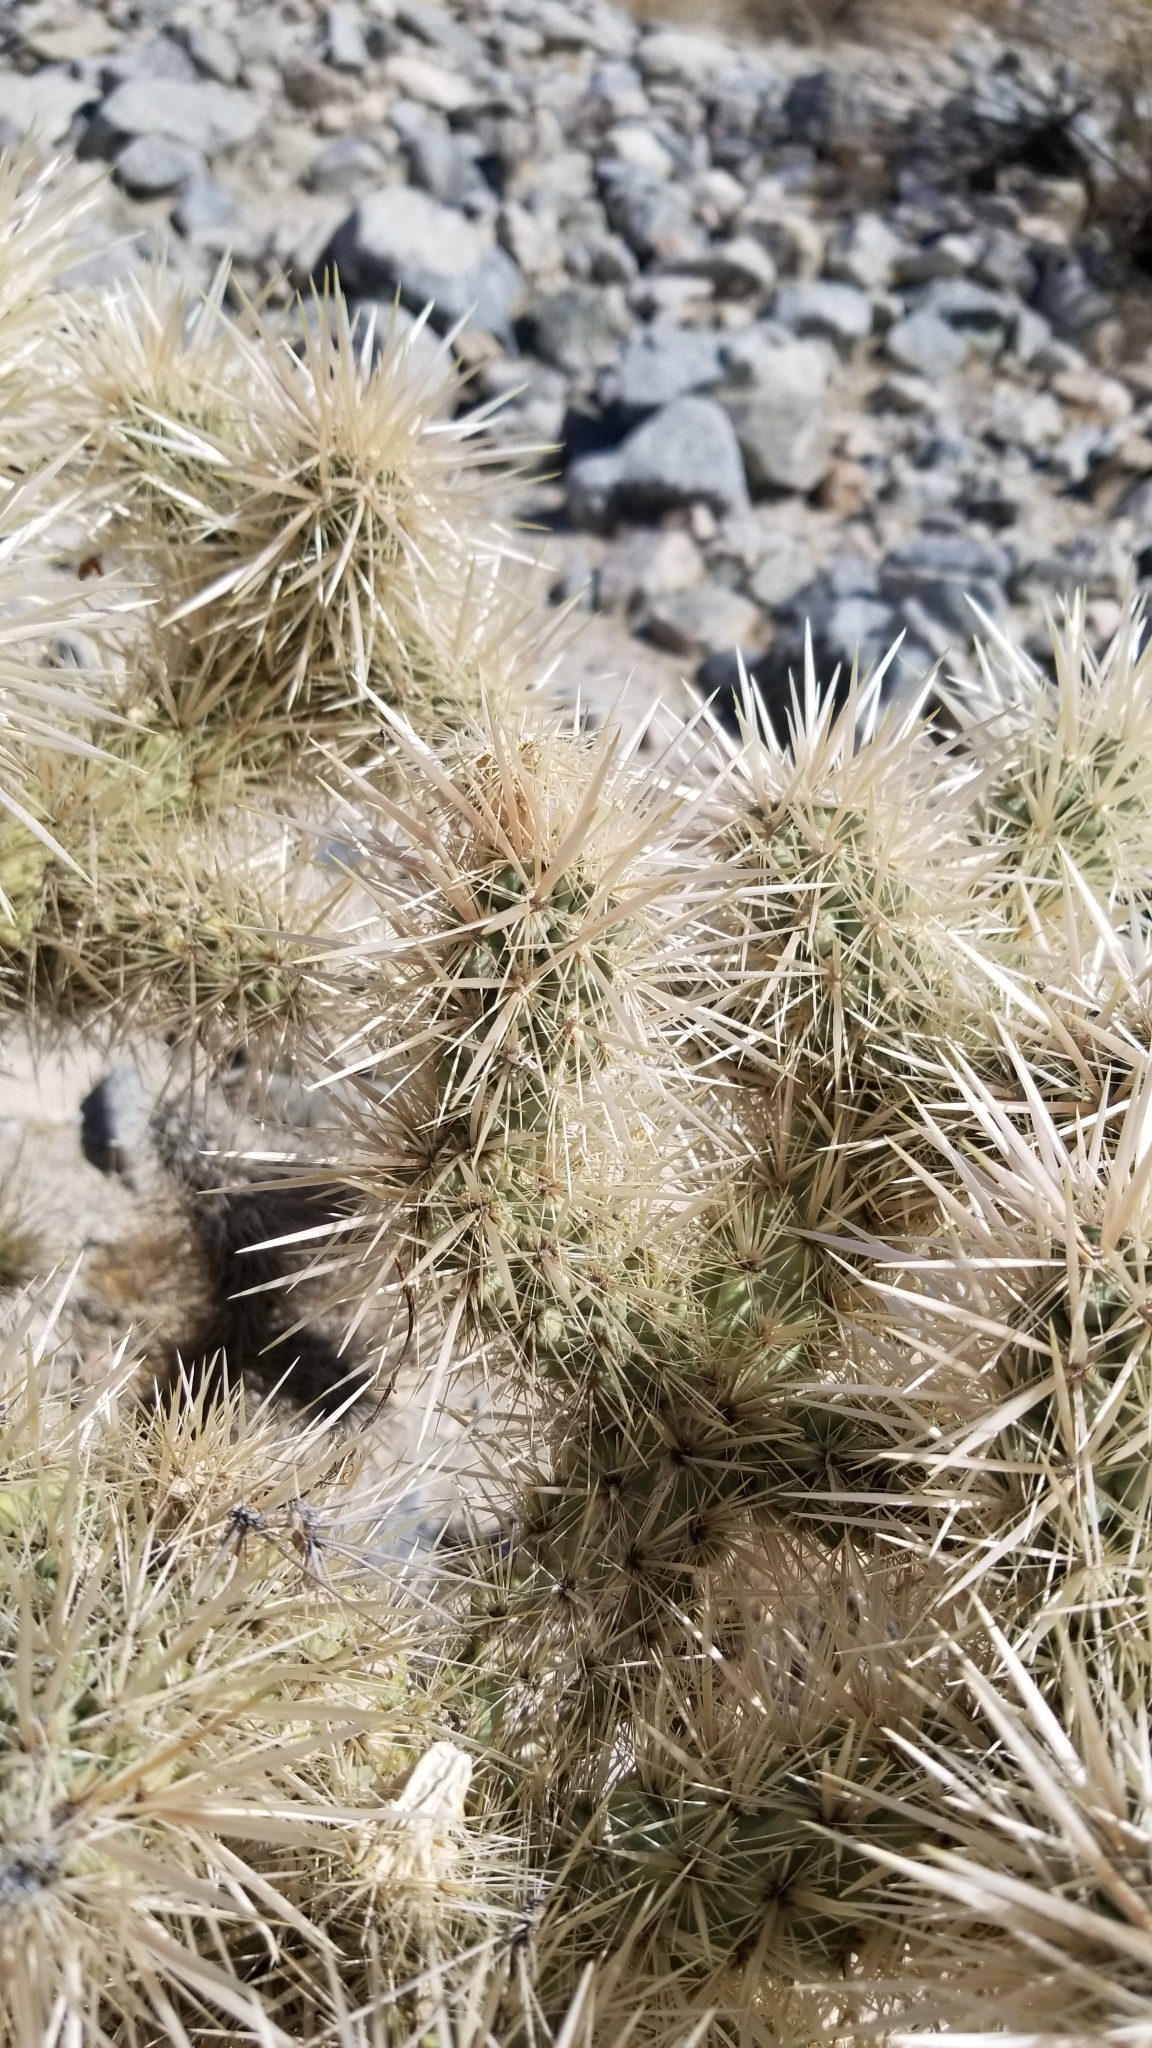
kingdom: Plantae
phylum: Tracheophyta
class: Magnoliopsida
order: Caryophyllales
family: Cactaceae
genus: Cylindropuntia
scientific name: Cylindropuntia echinocarpa
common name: Ground cholla
